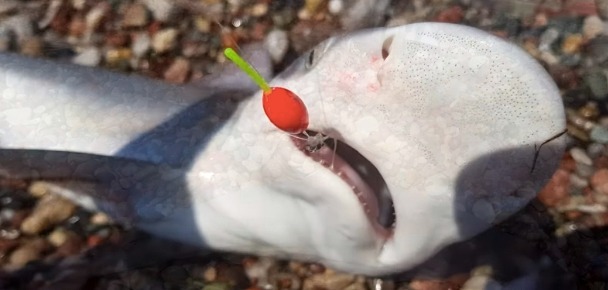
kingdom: Animalia
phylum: Chordata
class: Elasmobranchii
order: Carcharhiniformes
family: Carcharhinidae
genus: Carcharhinus
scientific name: Carcharhinus plumbeus
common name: Sandbar shark
